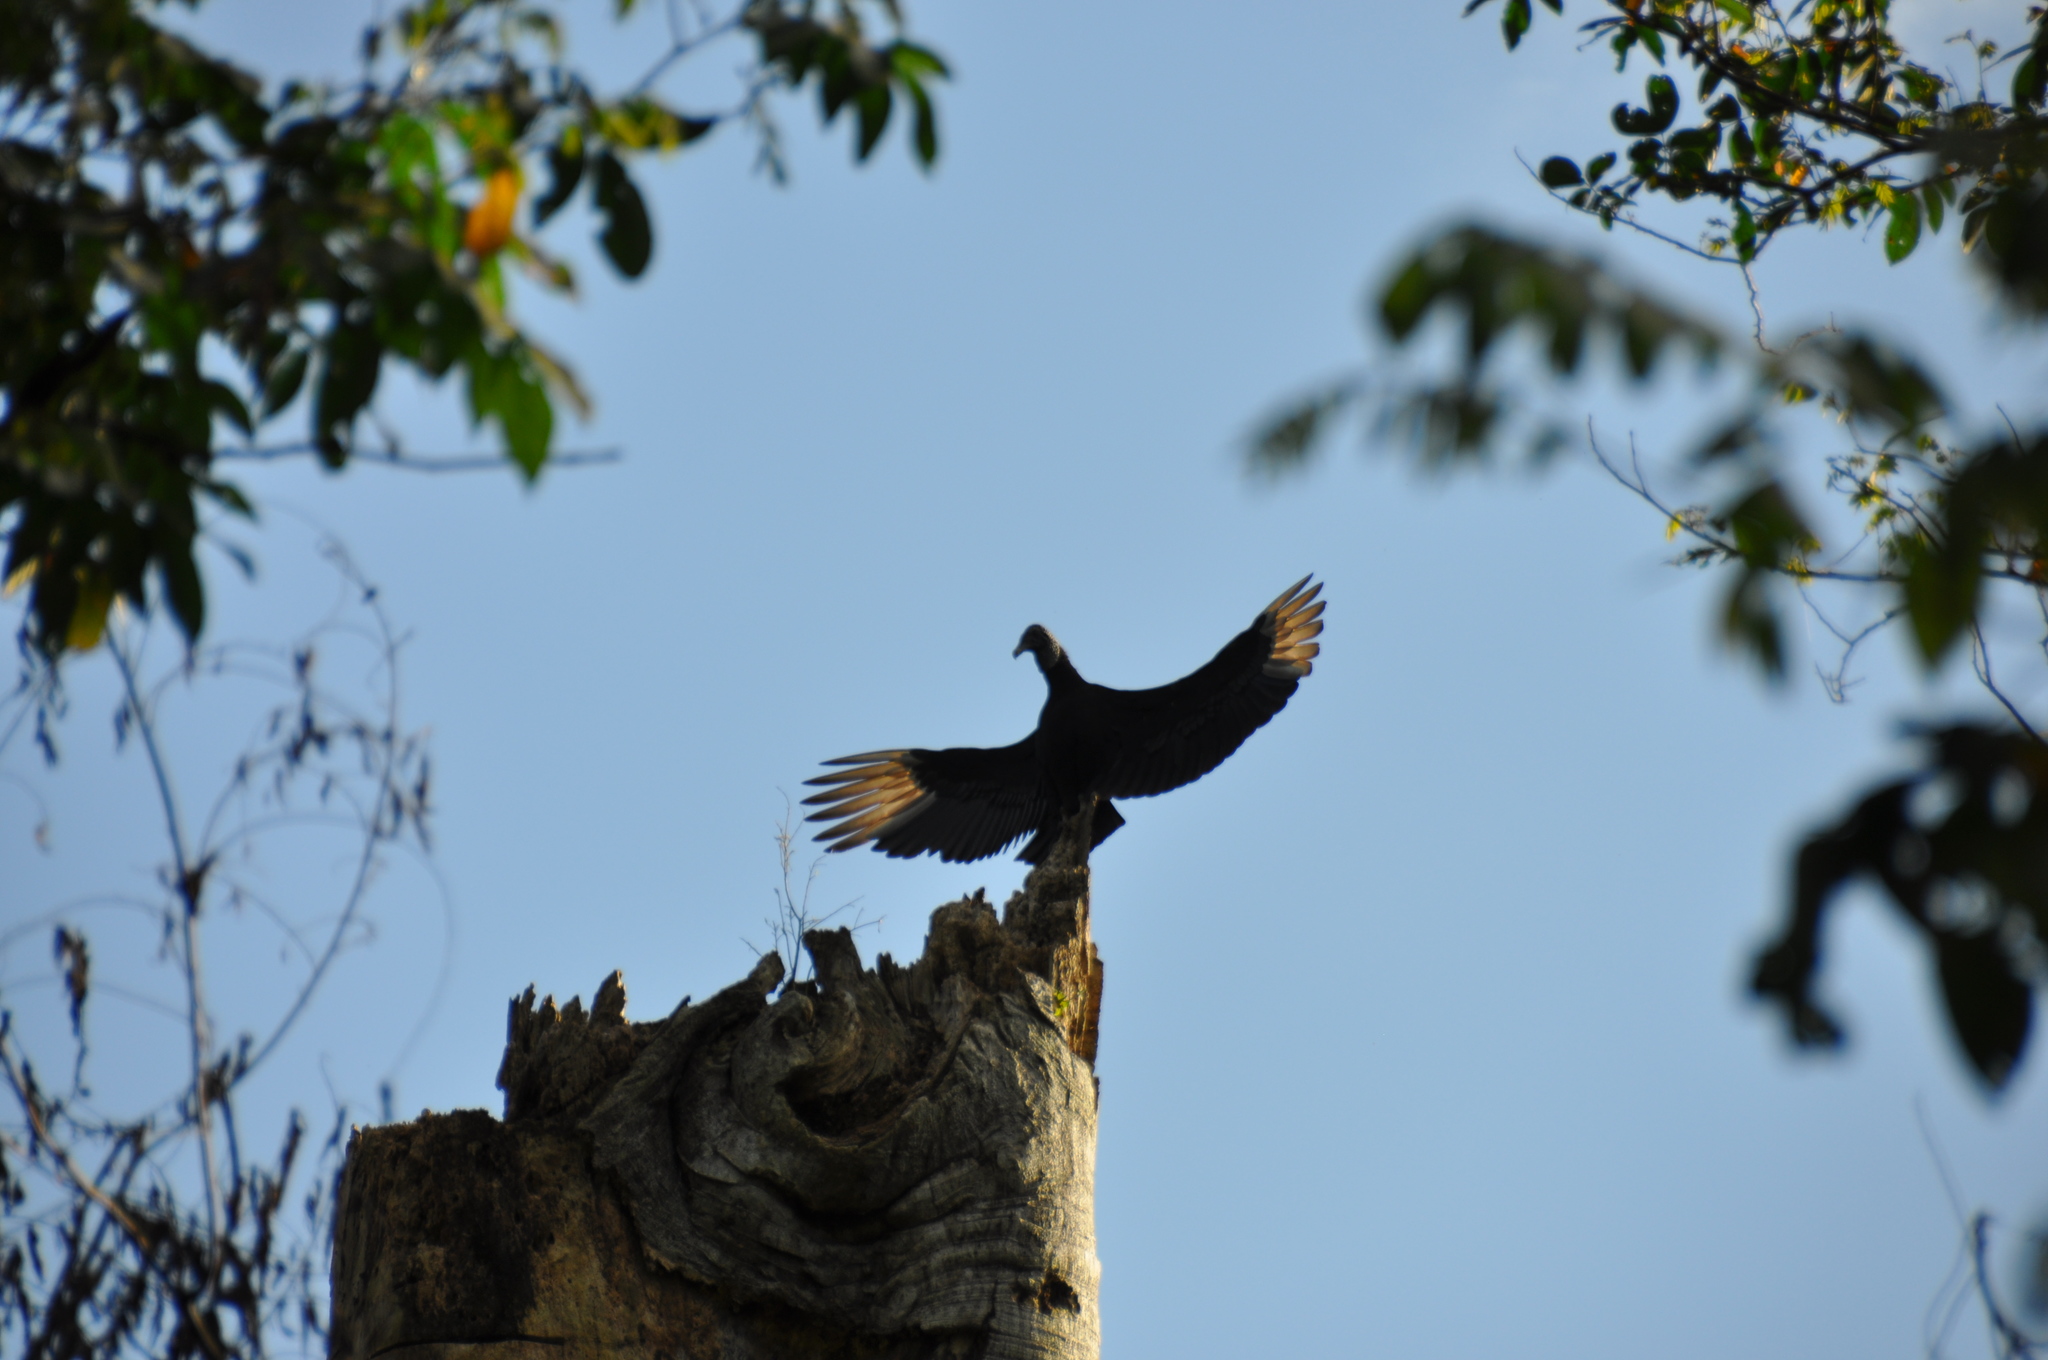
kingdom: Animalia
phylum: Chordata
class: Aves
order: Accipitriformes
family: Cathartidae
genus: Coragyps
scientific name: Coragyps atratus
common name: Black vulture
